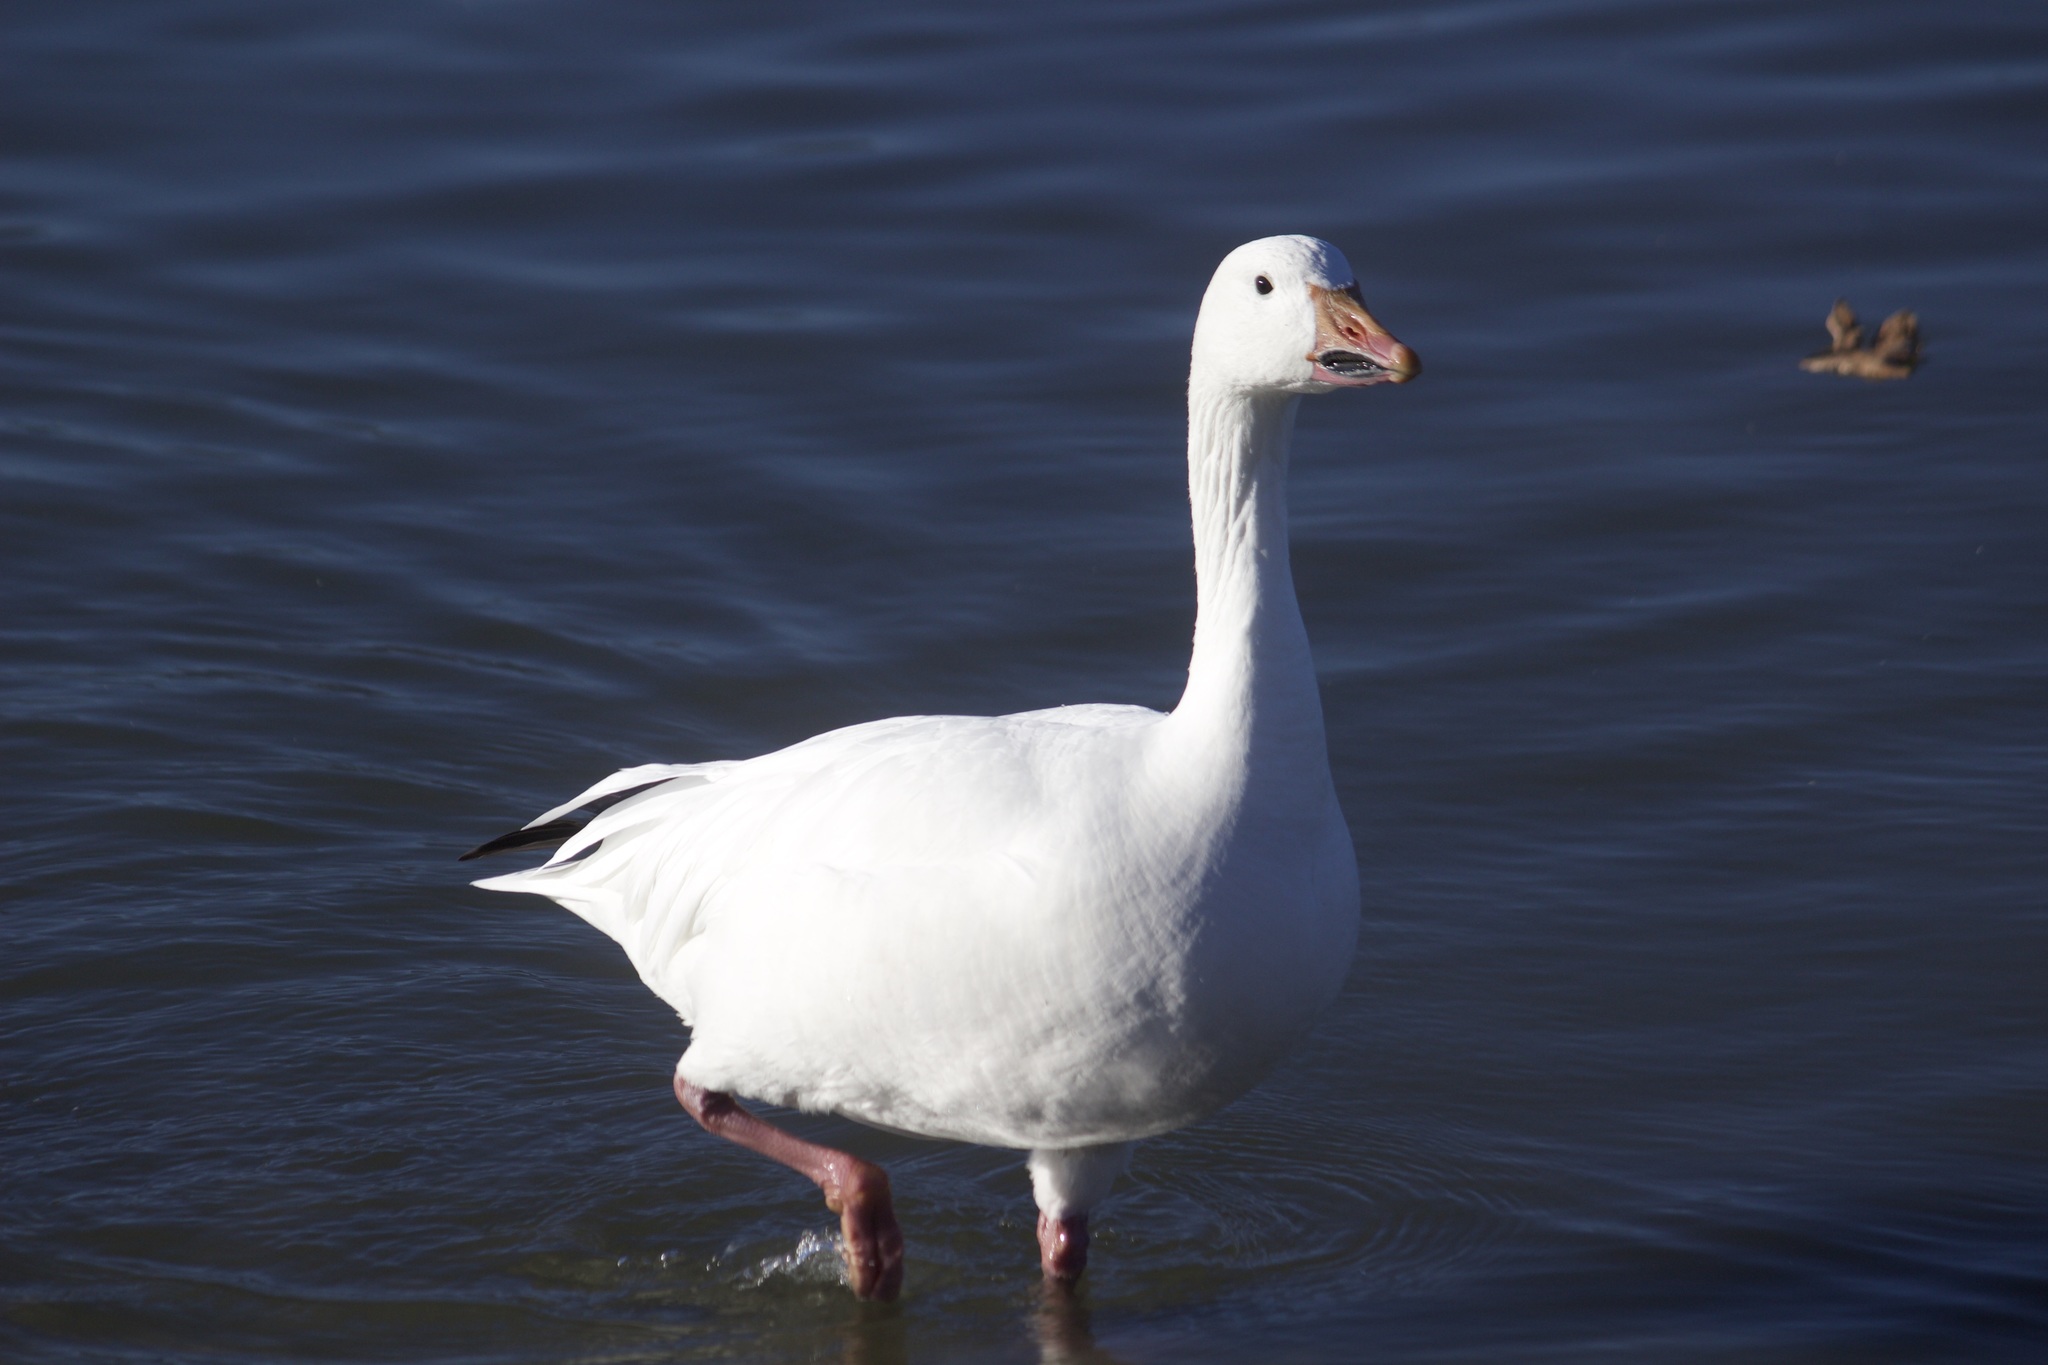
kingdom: Animalia
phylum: Chordata
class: Aves
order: Anseriformes
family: Anatidae
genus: Anser
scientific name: Anser caerulescens
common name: Snow goose
